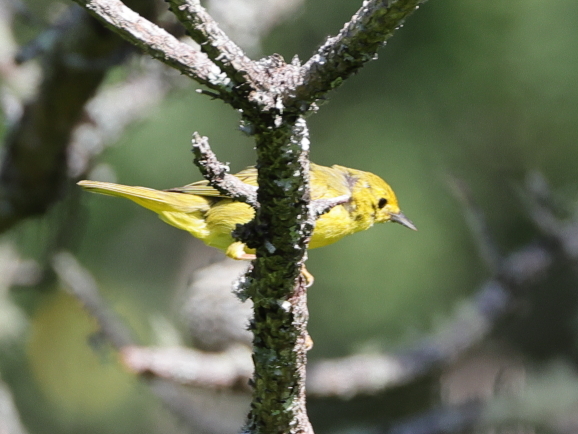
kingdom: Animalia
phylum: Chordata
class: Aves
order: Passeriformes
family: Parulidae
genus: Setophaga
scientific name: Setophaga petechia
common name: Yellow warbler
